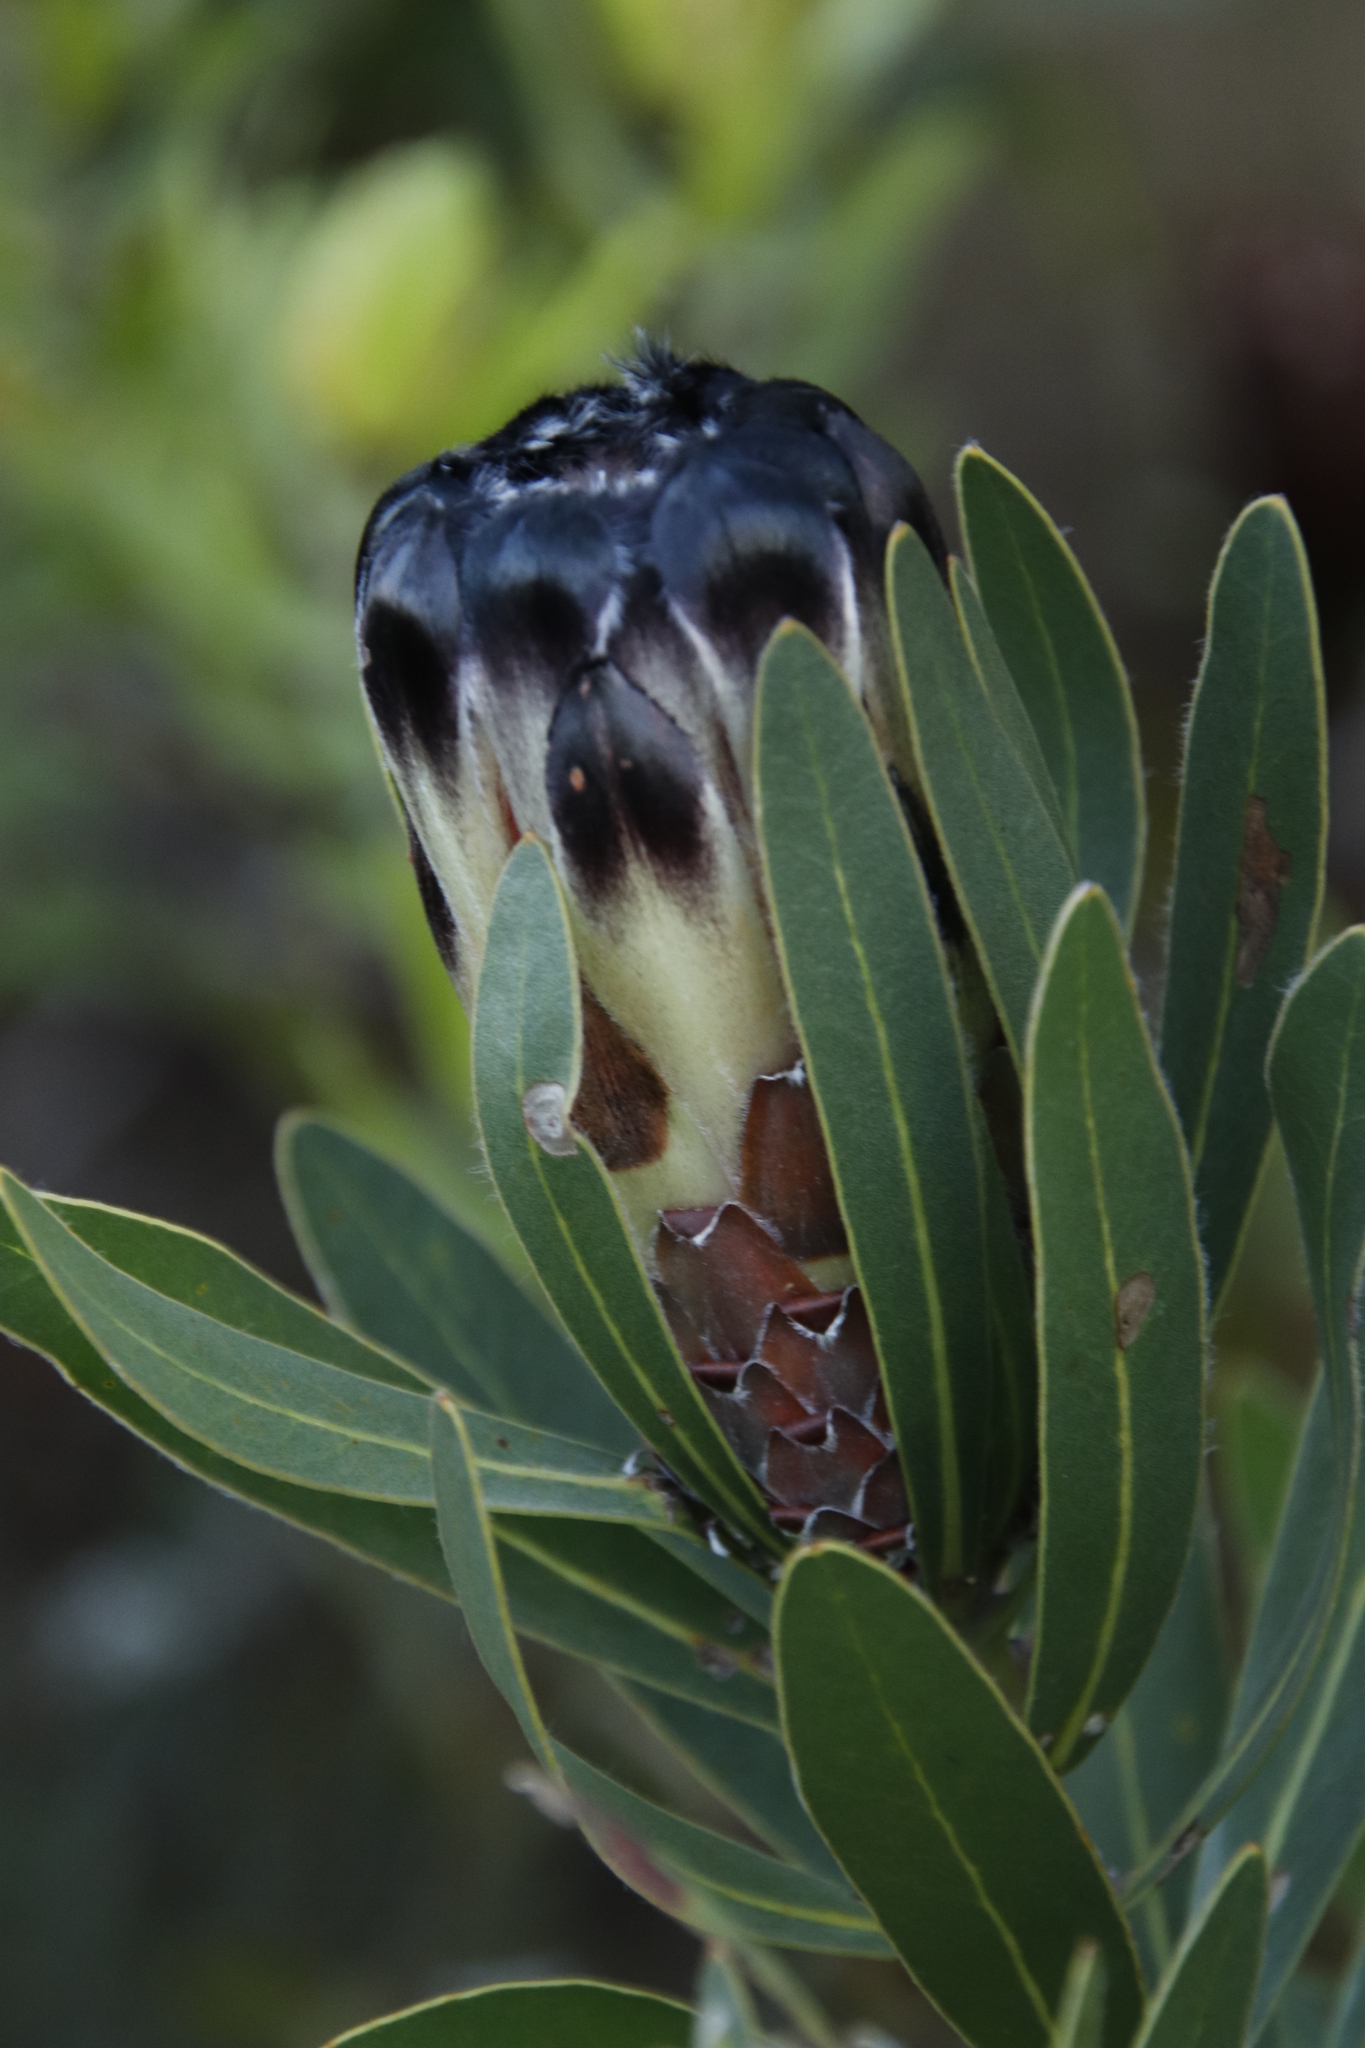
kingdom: Plantae
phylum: Tracheophyta
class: Magnoliopsida
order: Proteales
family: Proteaceae
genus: Protea
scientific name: Protea lepidocarpodendron
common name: Black-bearded protea
